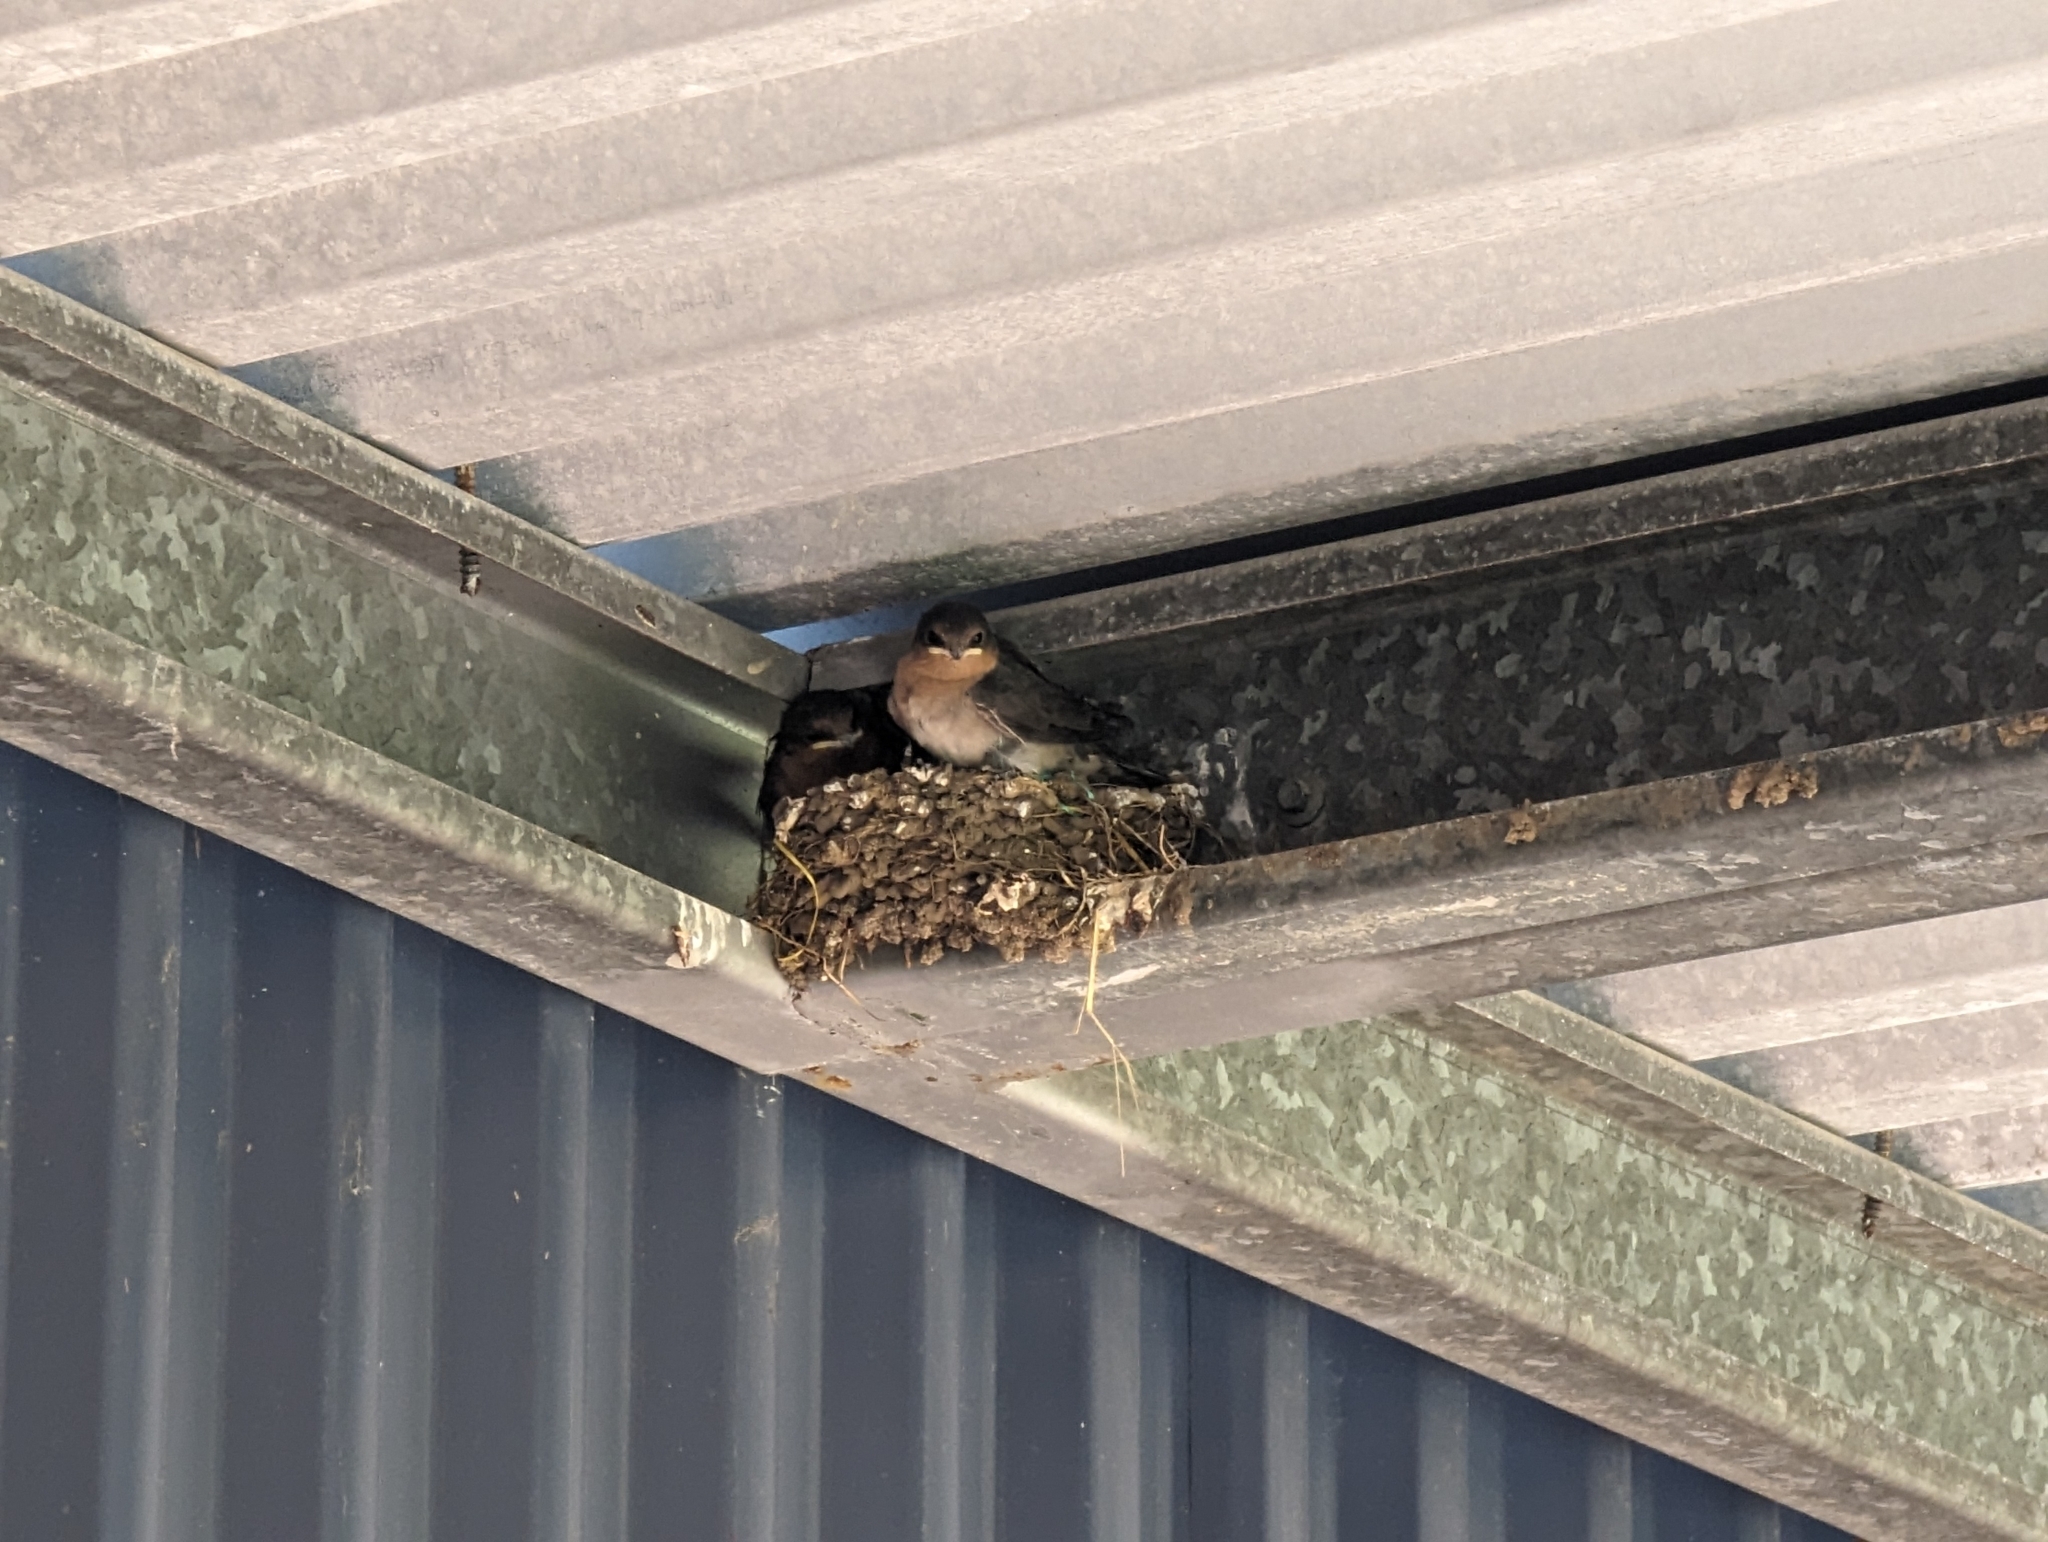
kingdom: Animalia
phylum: Chordata
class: Aves
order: Passeriformes
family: Hirundinidae
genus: Hirundo
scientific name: Hirundo neoxena
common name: Welcome swallow
